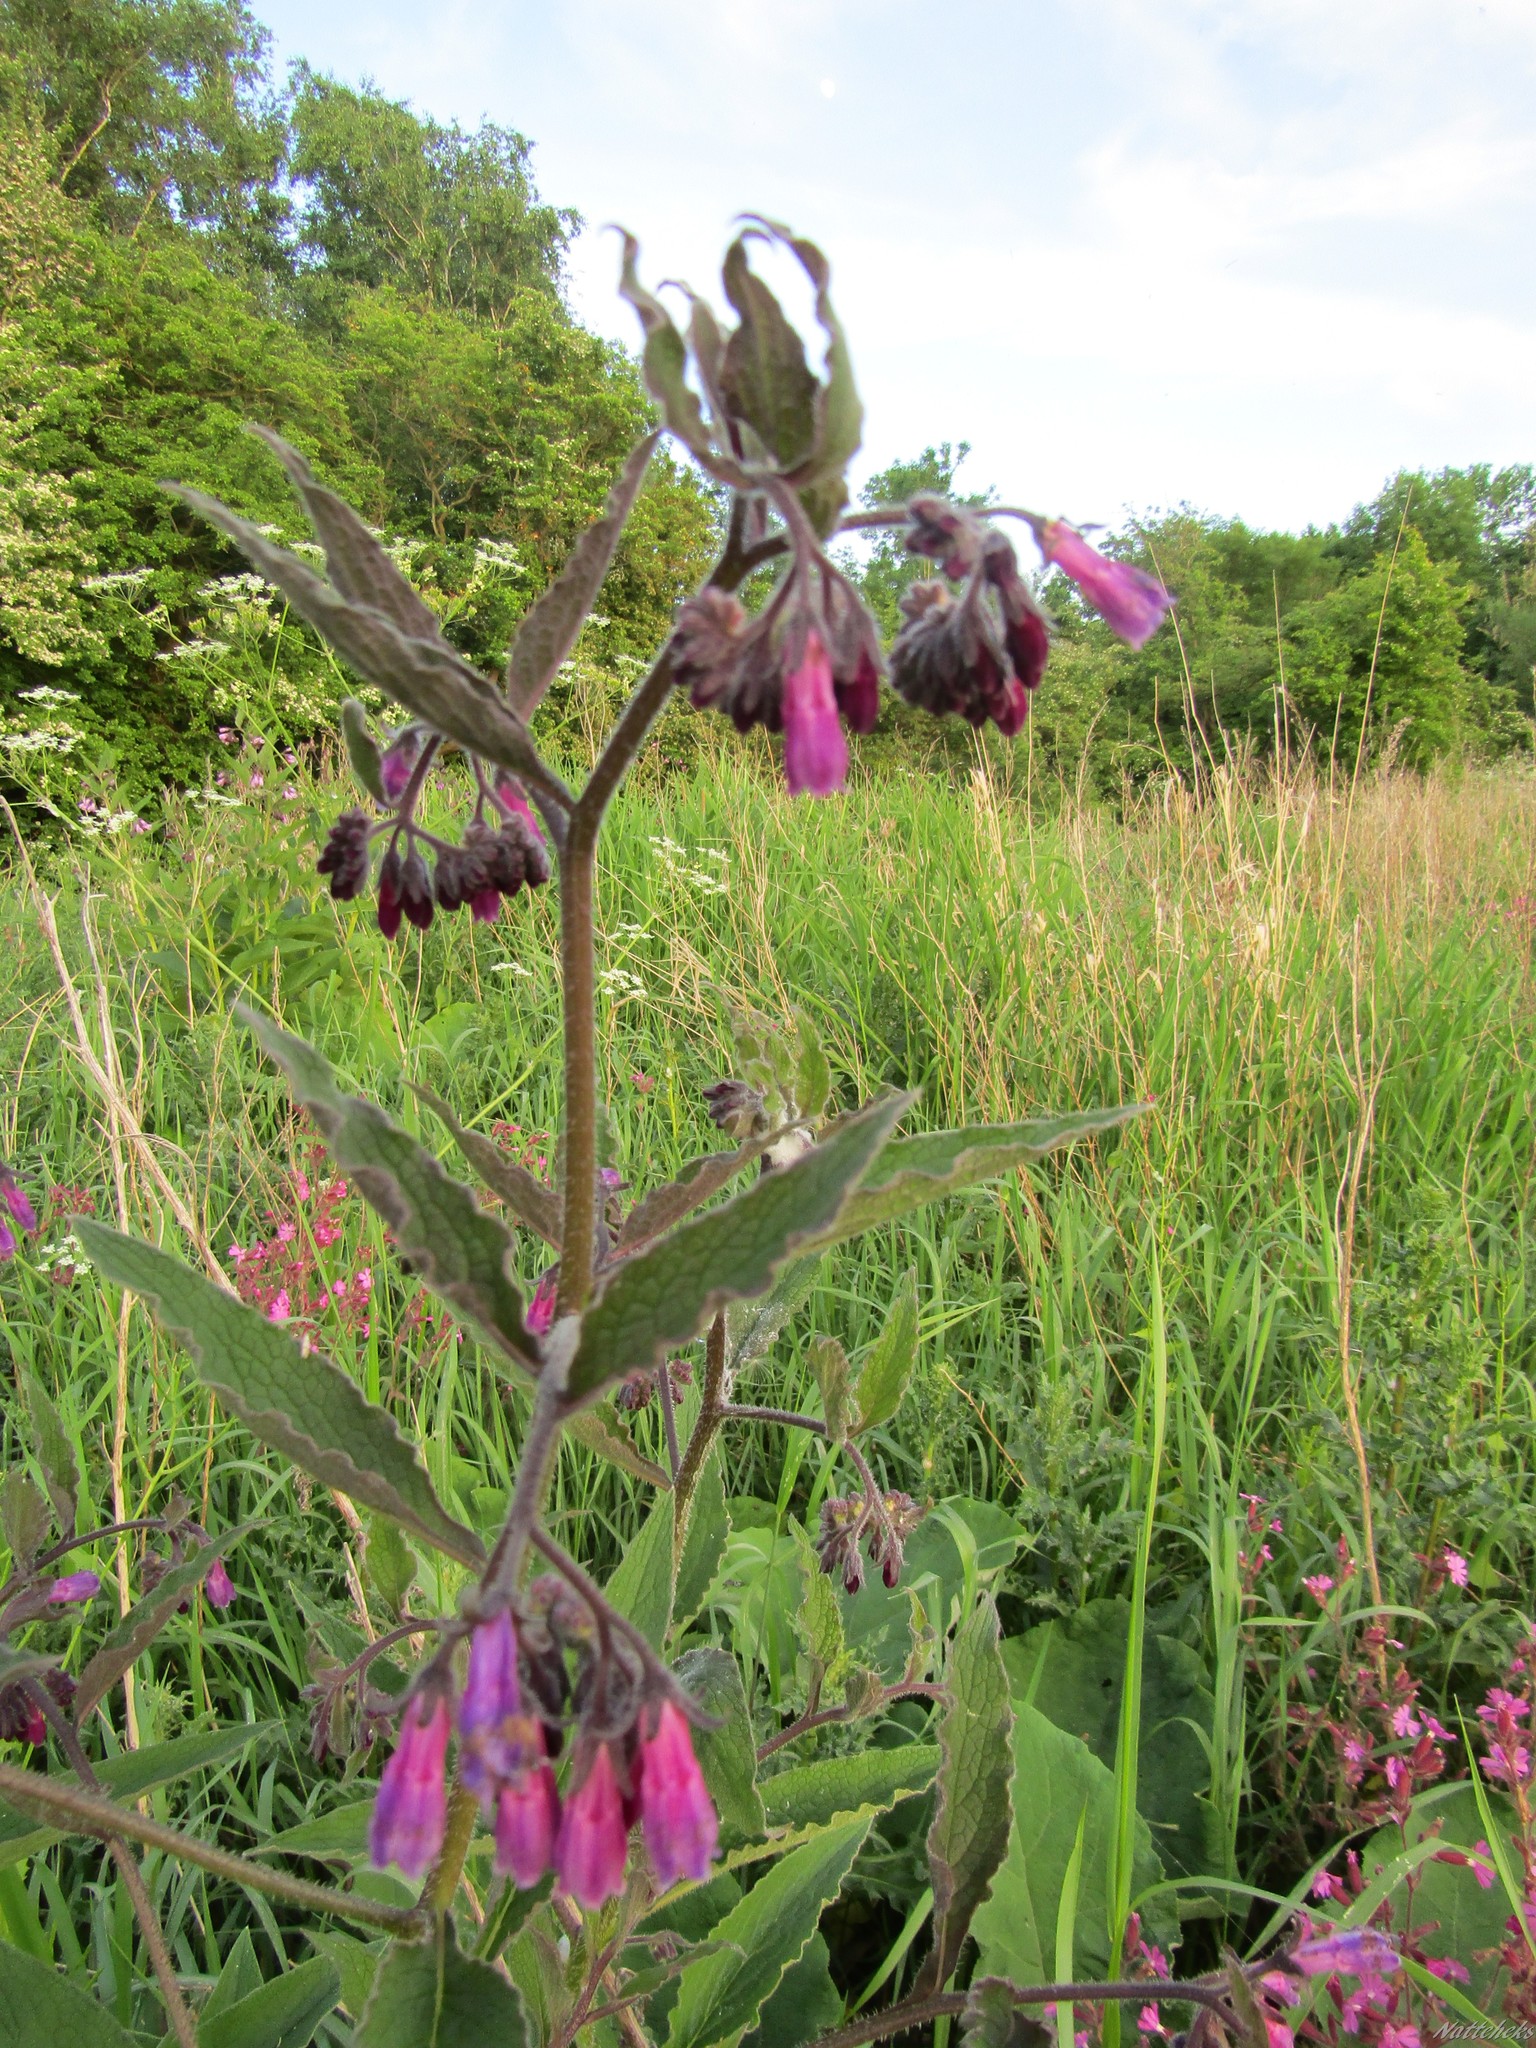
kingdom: Plantae
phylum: Tracheophyta
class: Magnoliopsida
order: Boraginales
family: Boraginaceae
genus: Symphytum
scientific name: Symphytum officinale
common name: Common comfrey
